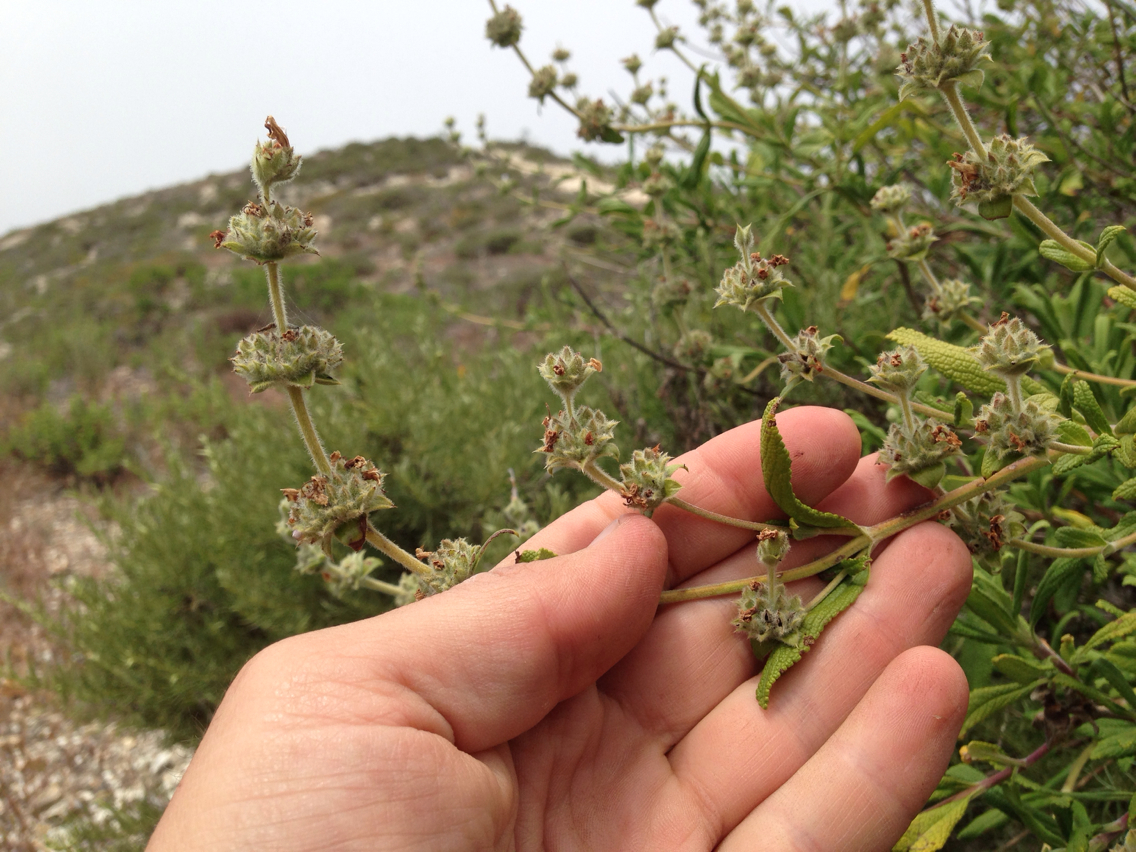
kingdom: Plantae
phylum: Tracheophyta
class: Magnoliopsida
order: Lamiales
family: Lamiaceae
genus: Salvia
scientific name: Salvia mellifera
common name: Black sage
